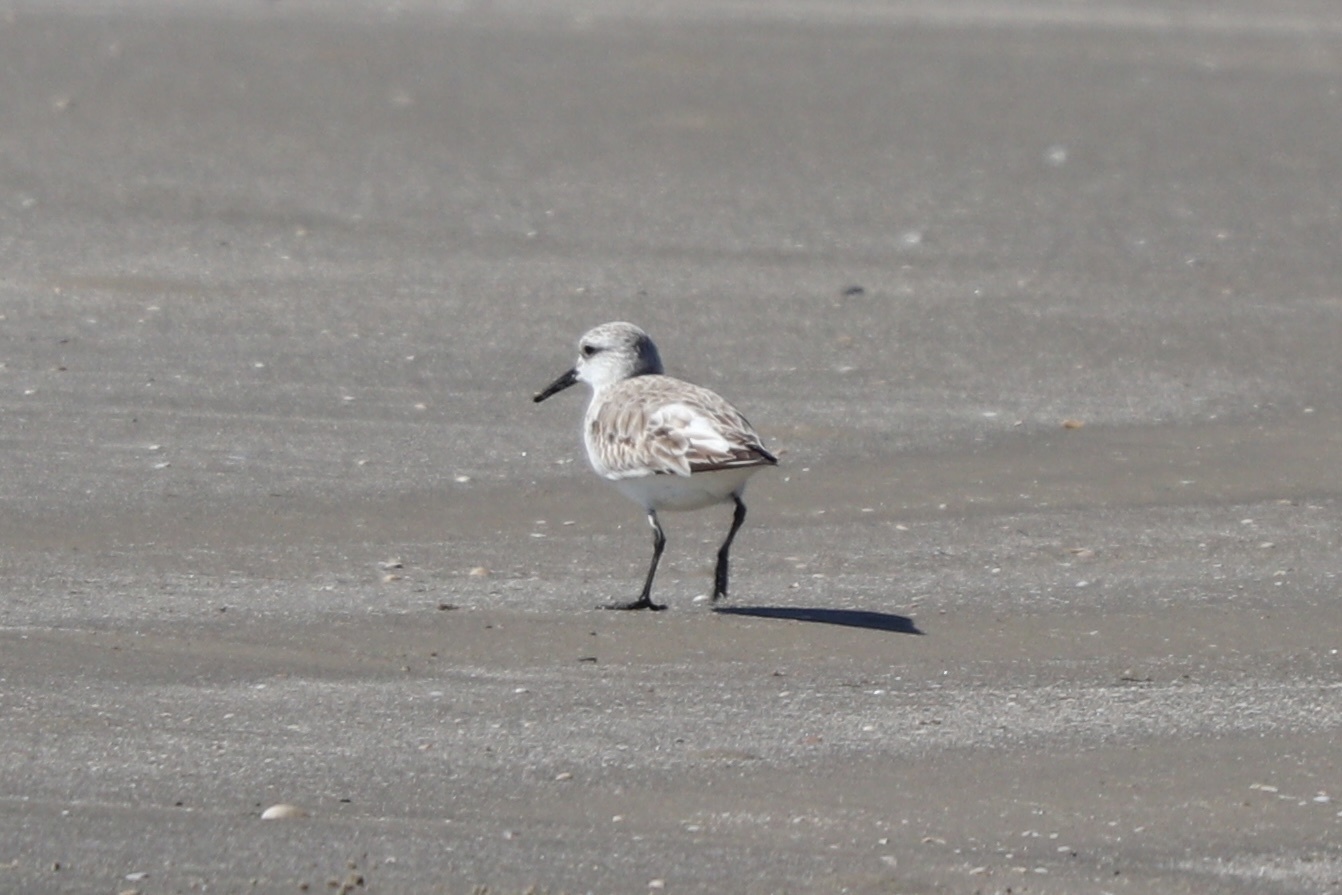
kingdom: Animalia
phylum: Chordata
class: Aves
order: Charadriiformes
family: Scolopacidae
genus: Calidris
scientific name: Calidris alba
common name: Sanderling
